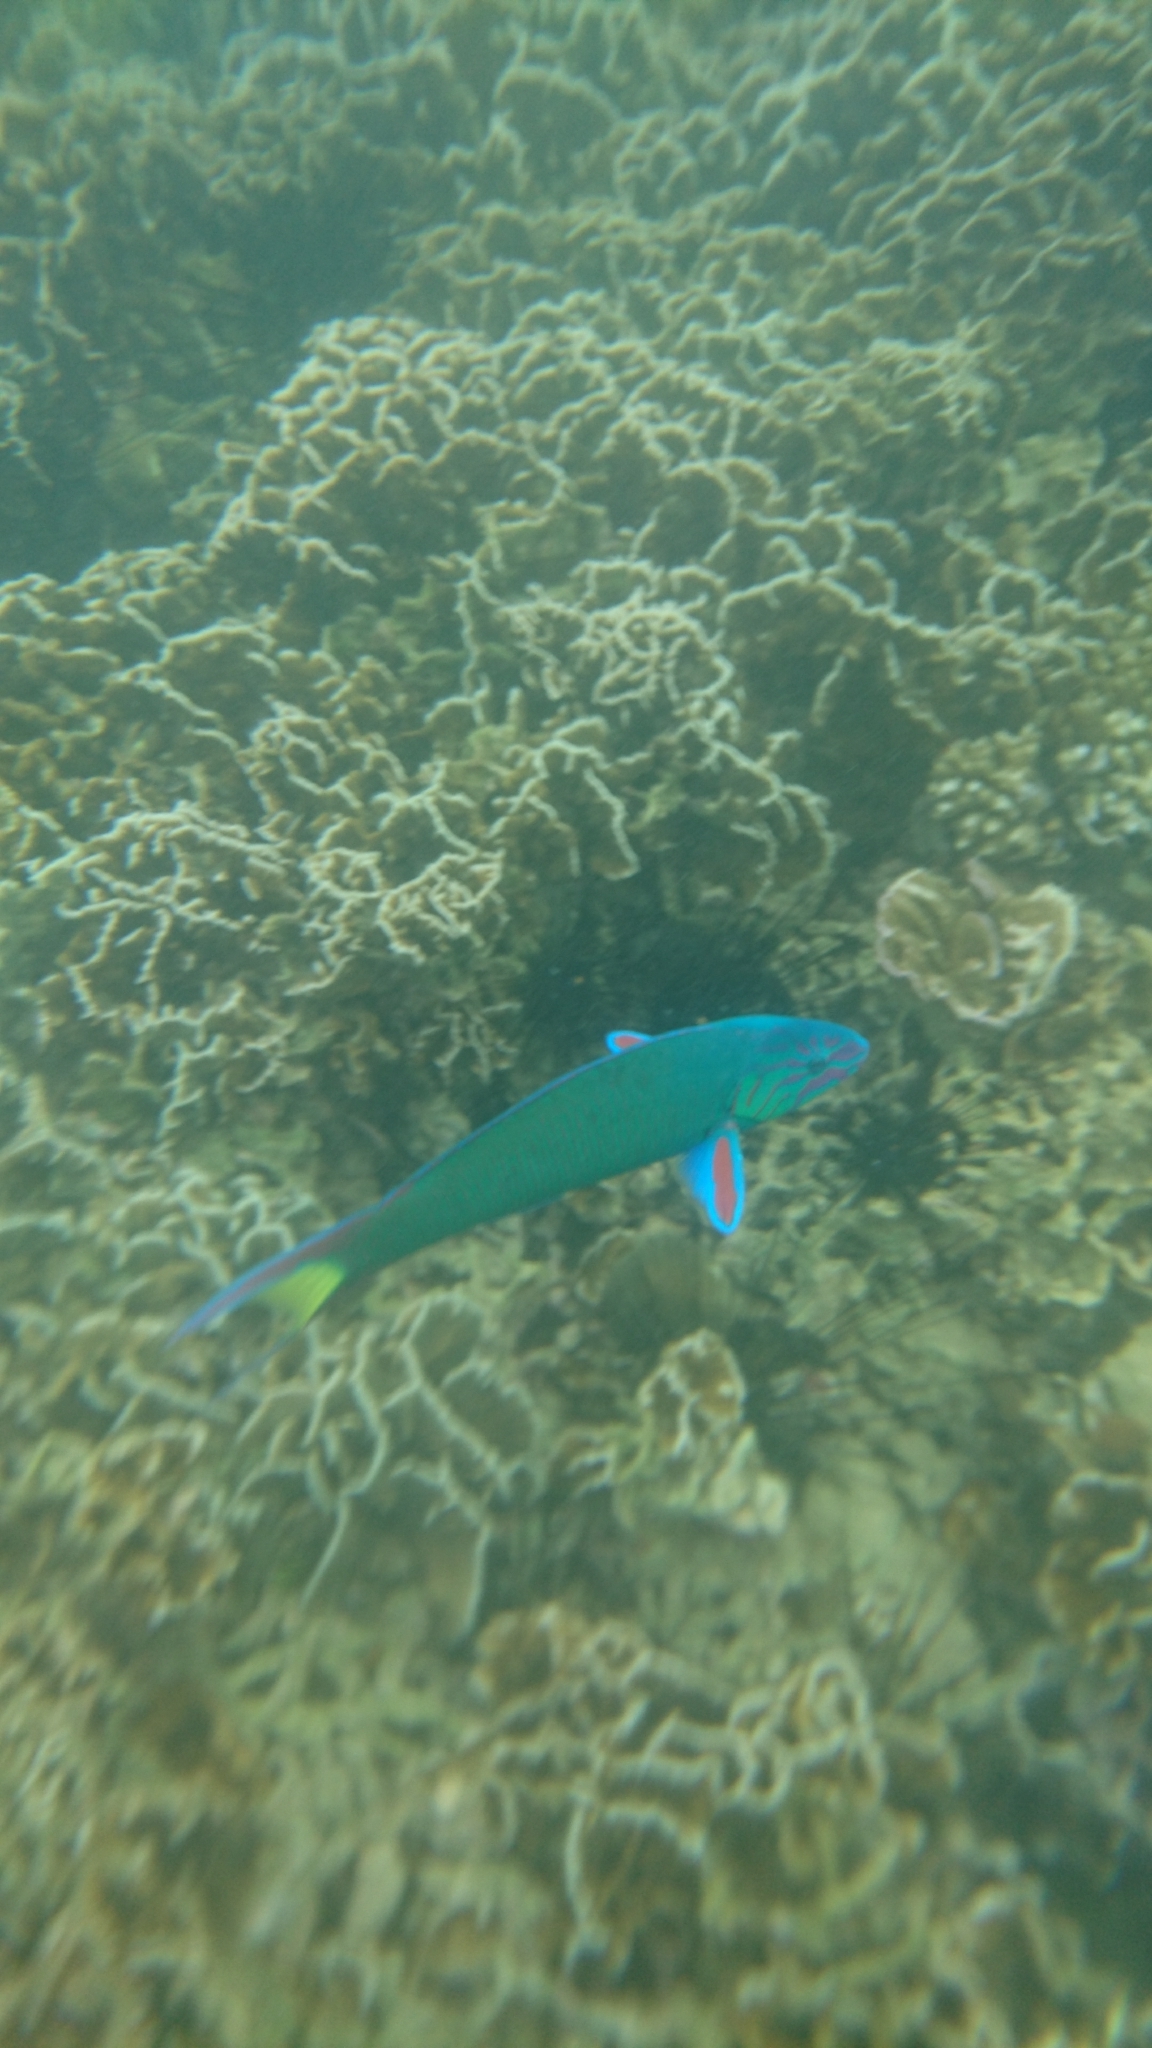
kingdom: Animalia
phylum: Chordata
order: Perciformes
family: Labridae
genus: Thalassoma
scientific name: Thalassoma lunare
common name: Blue wrasse
